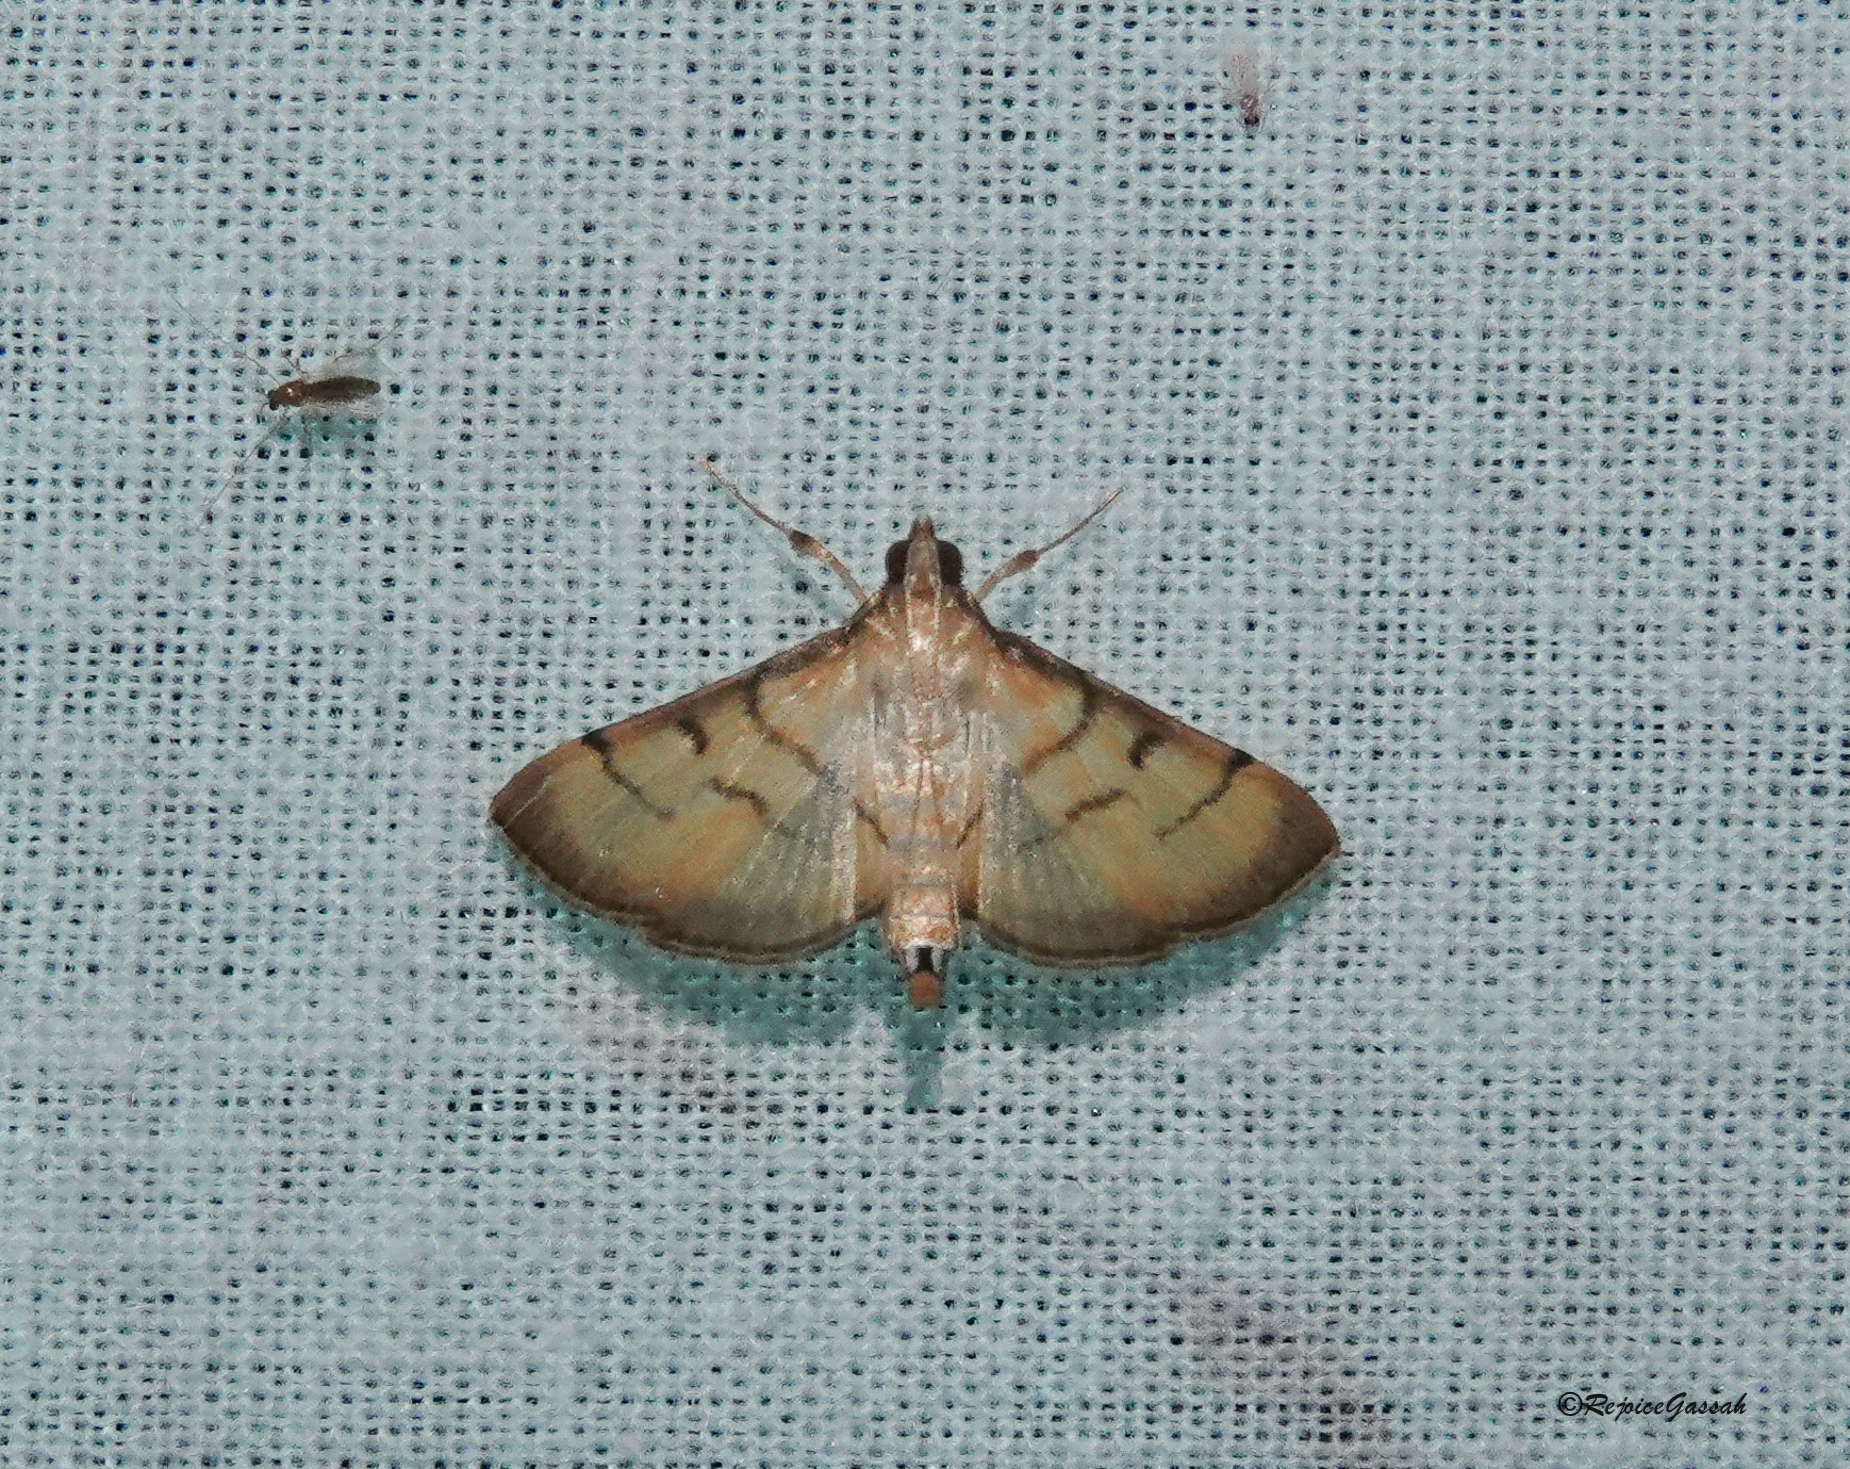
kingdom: Animalia
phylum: Arthropoda
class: Insecta
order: Lepidoptera
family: Crambidae
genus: Cnaphalocrocis
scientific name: Cnaphalocrocis patnalis
